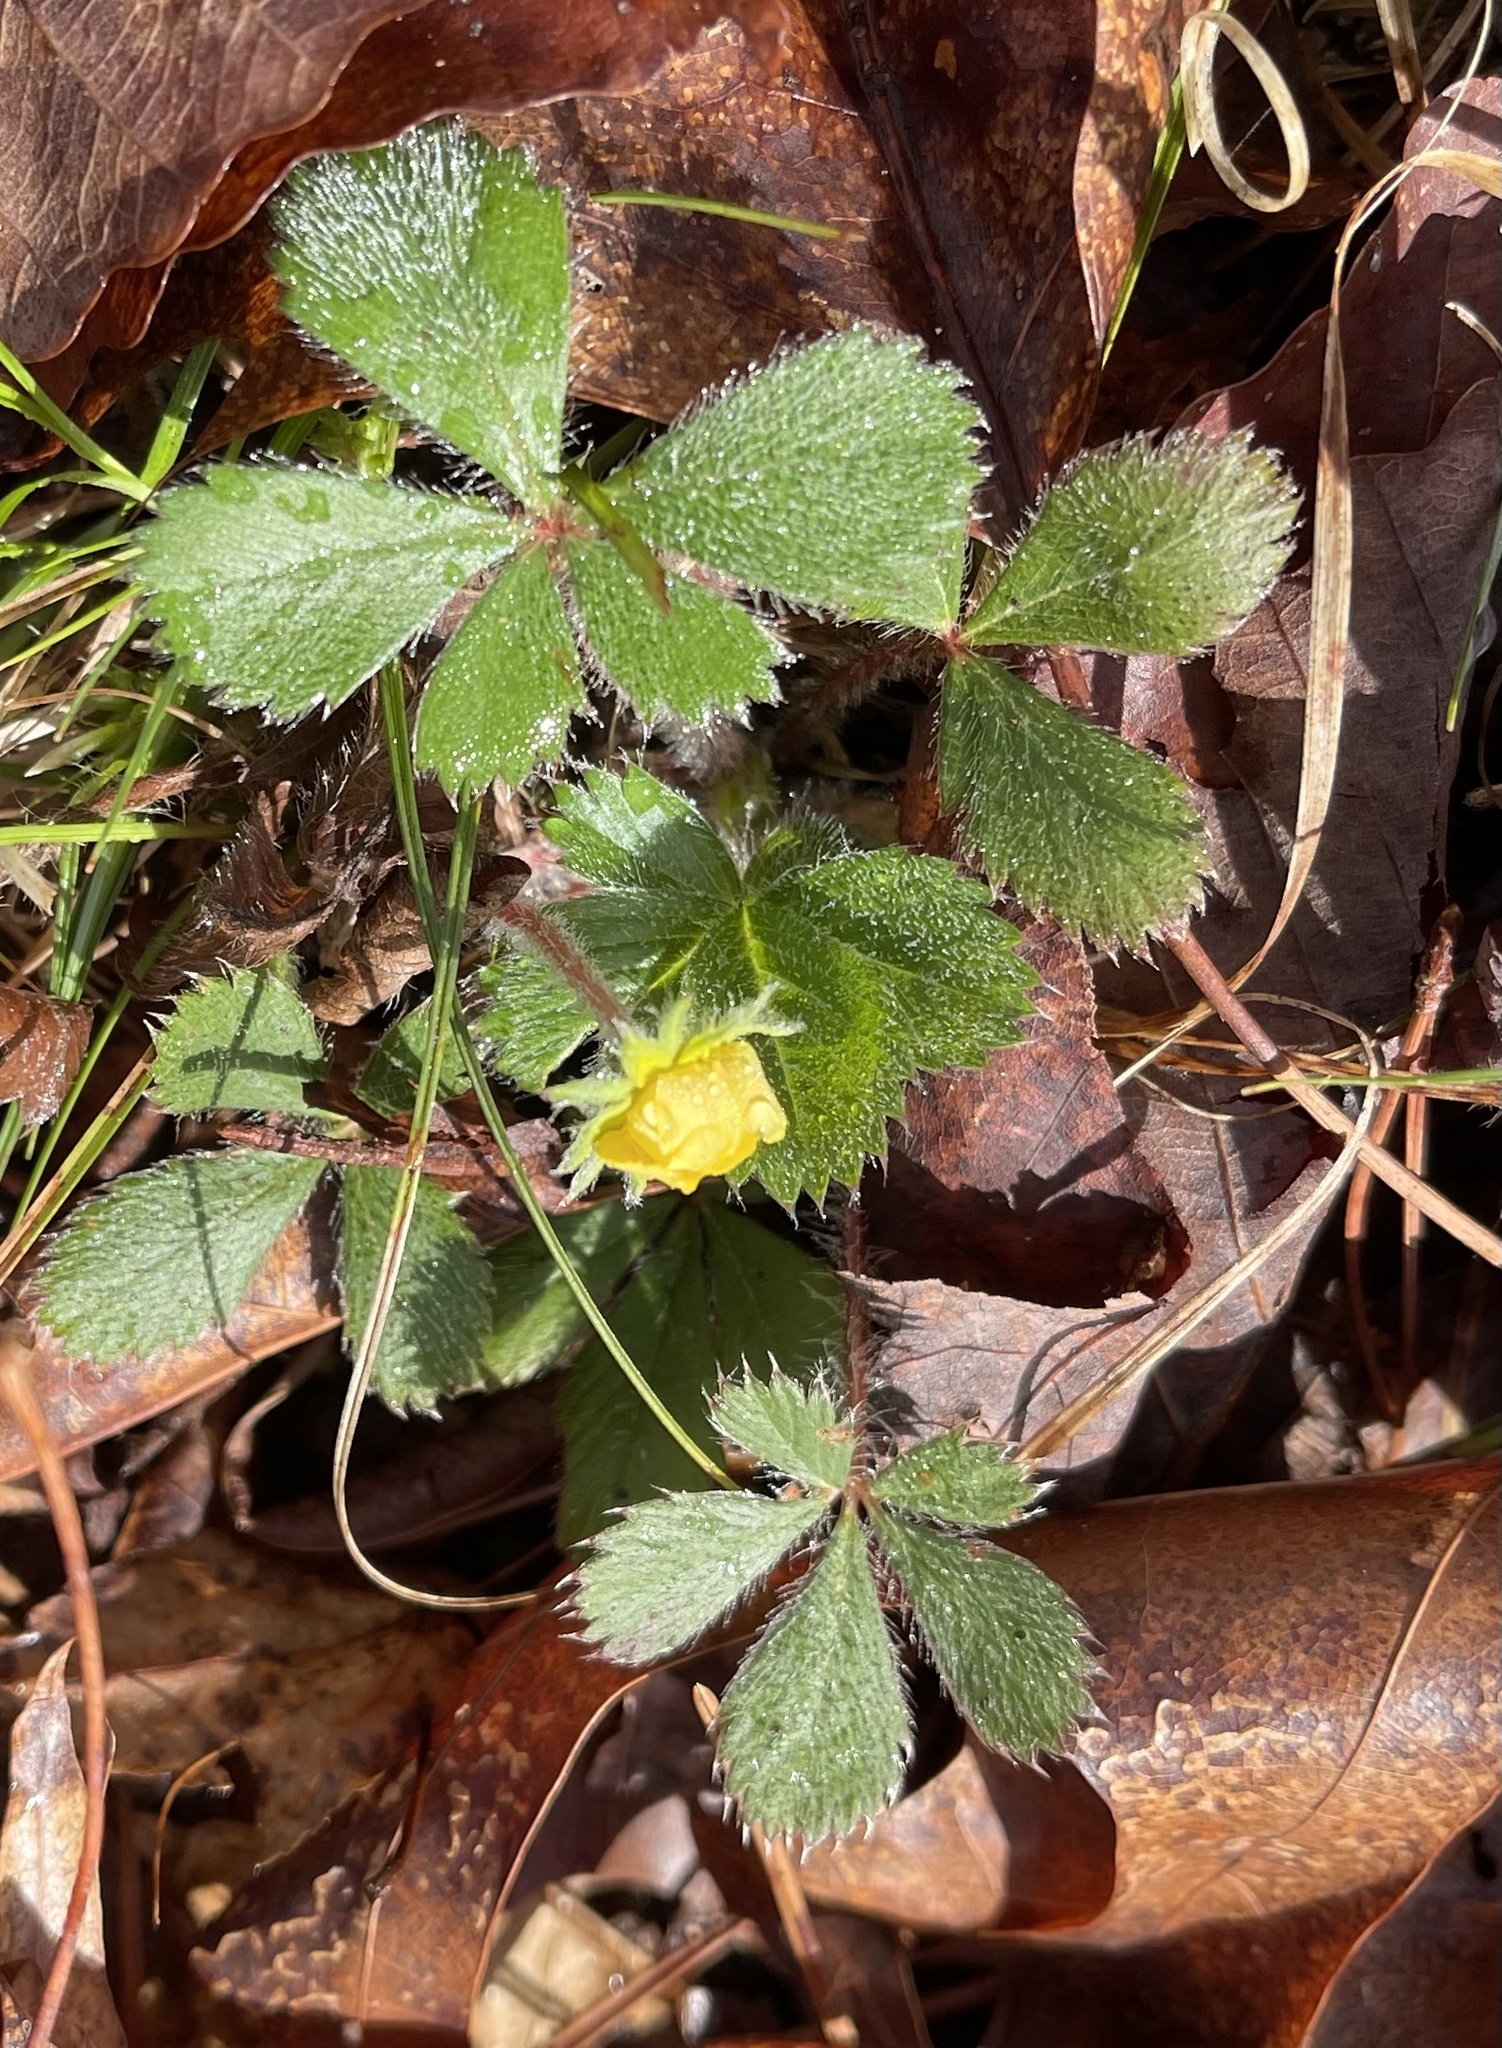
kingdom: Plantae
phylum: Tracheophyta
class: Magnoliopsida
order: Rosales
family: Rosaceae
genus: Potentilla
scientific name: Potentilla canadensis
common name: Canada cinquefoil
